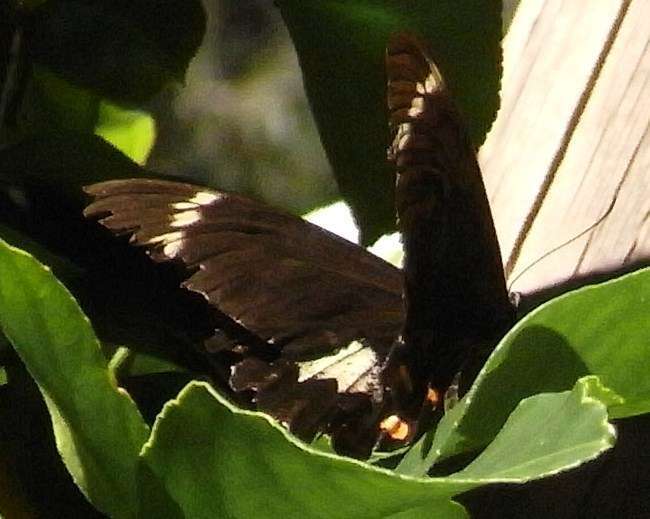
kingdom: Animalia
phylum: Arthropoda
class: Insecta
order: Lepidoptera
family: Papilionidae
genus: Papilio
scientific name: Papilio aegeus
